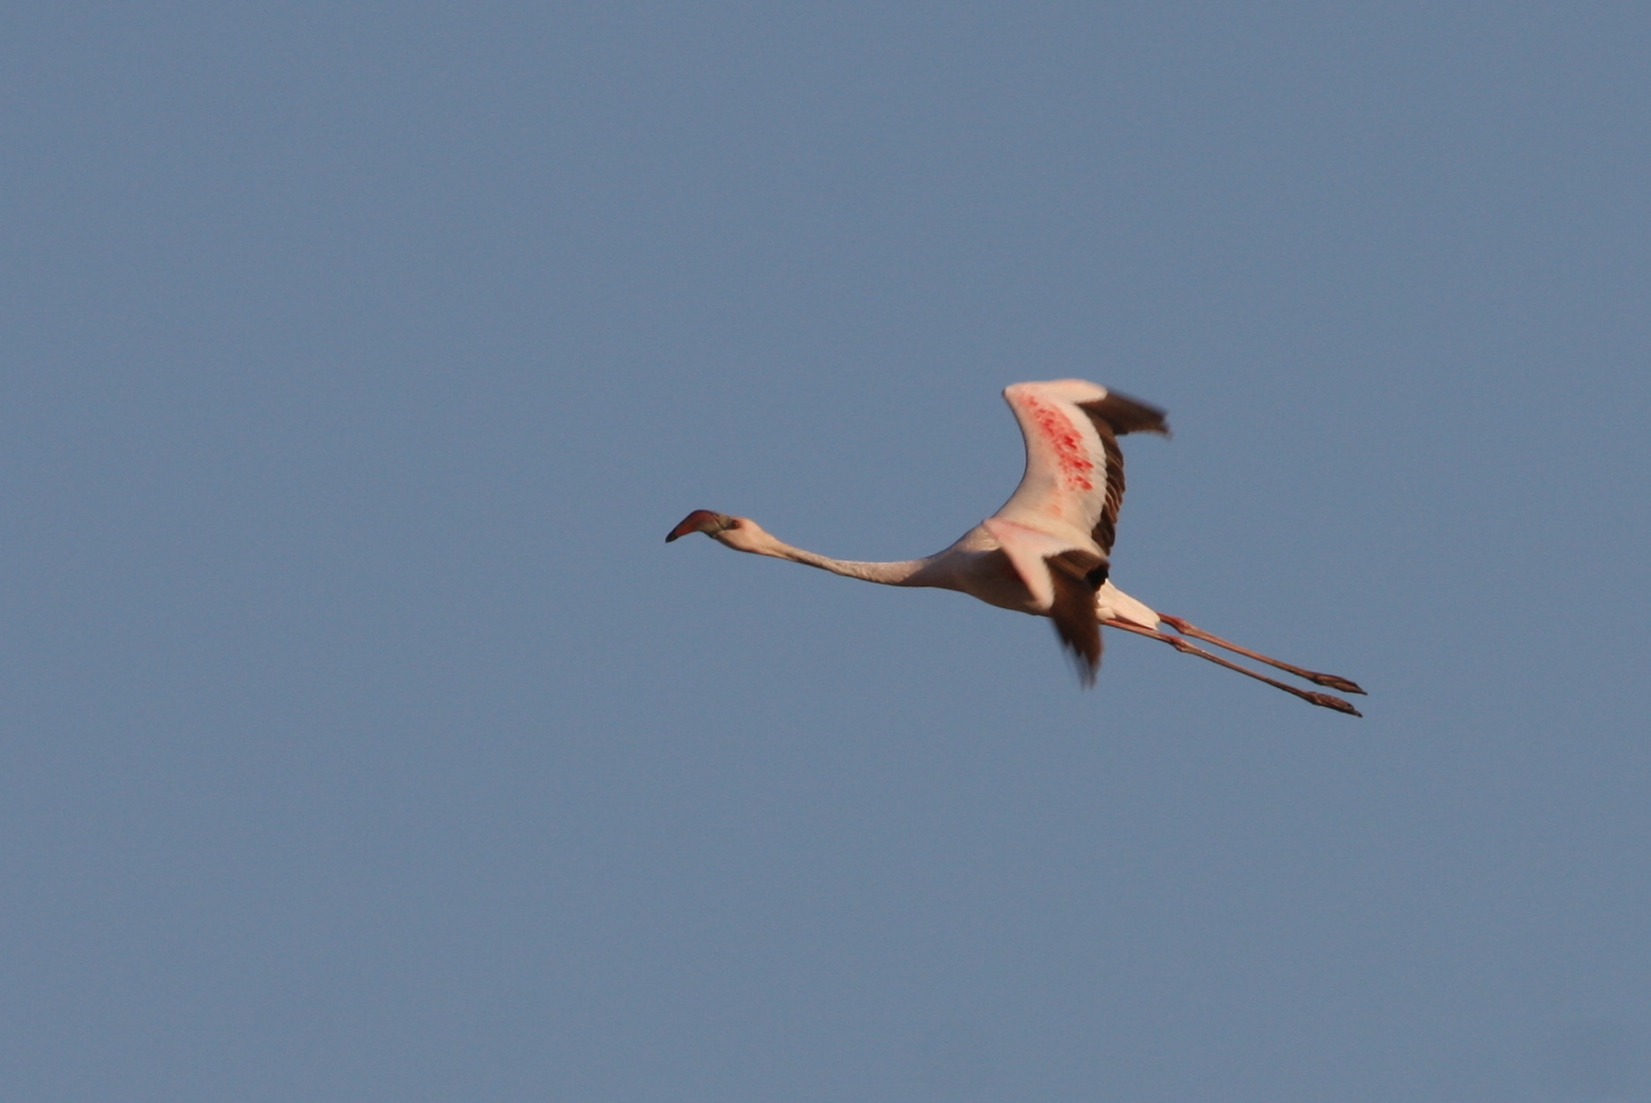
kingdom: Animalia
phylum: Chordata
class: Aves
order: Phoenicopteriformes
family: Phoenicopteridae
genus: Phoeniconaias
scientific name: Phoeniconaias minor
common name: Lesser flamingo
